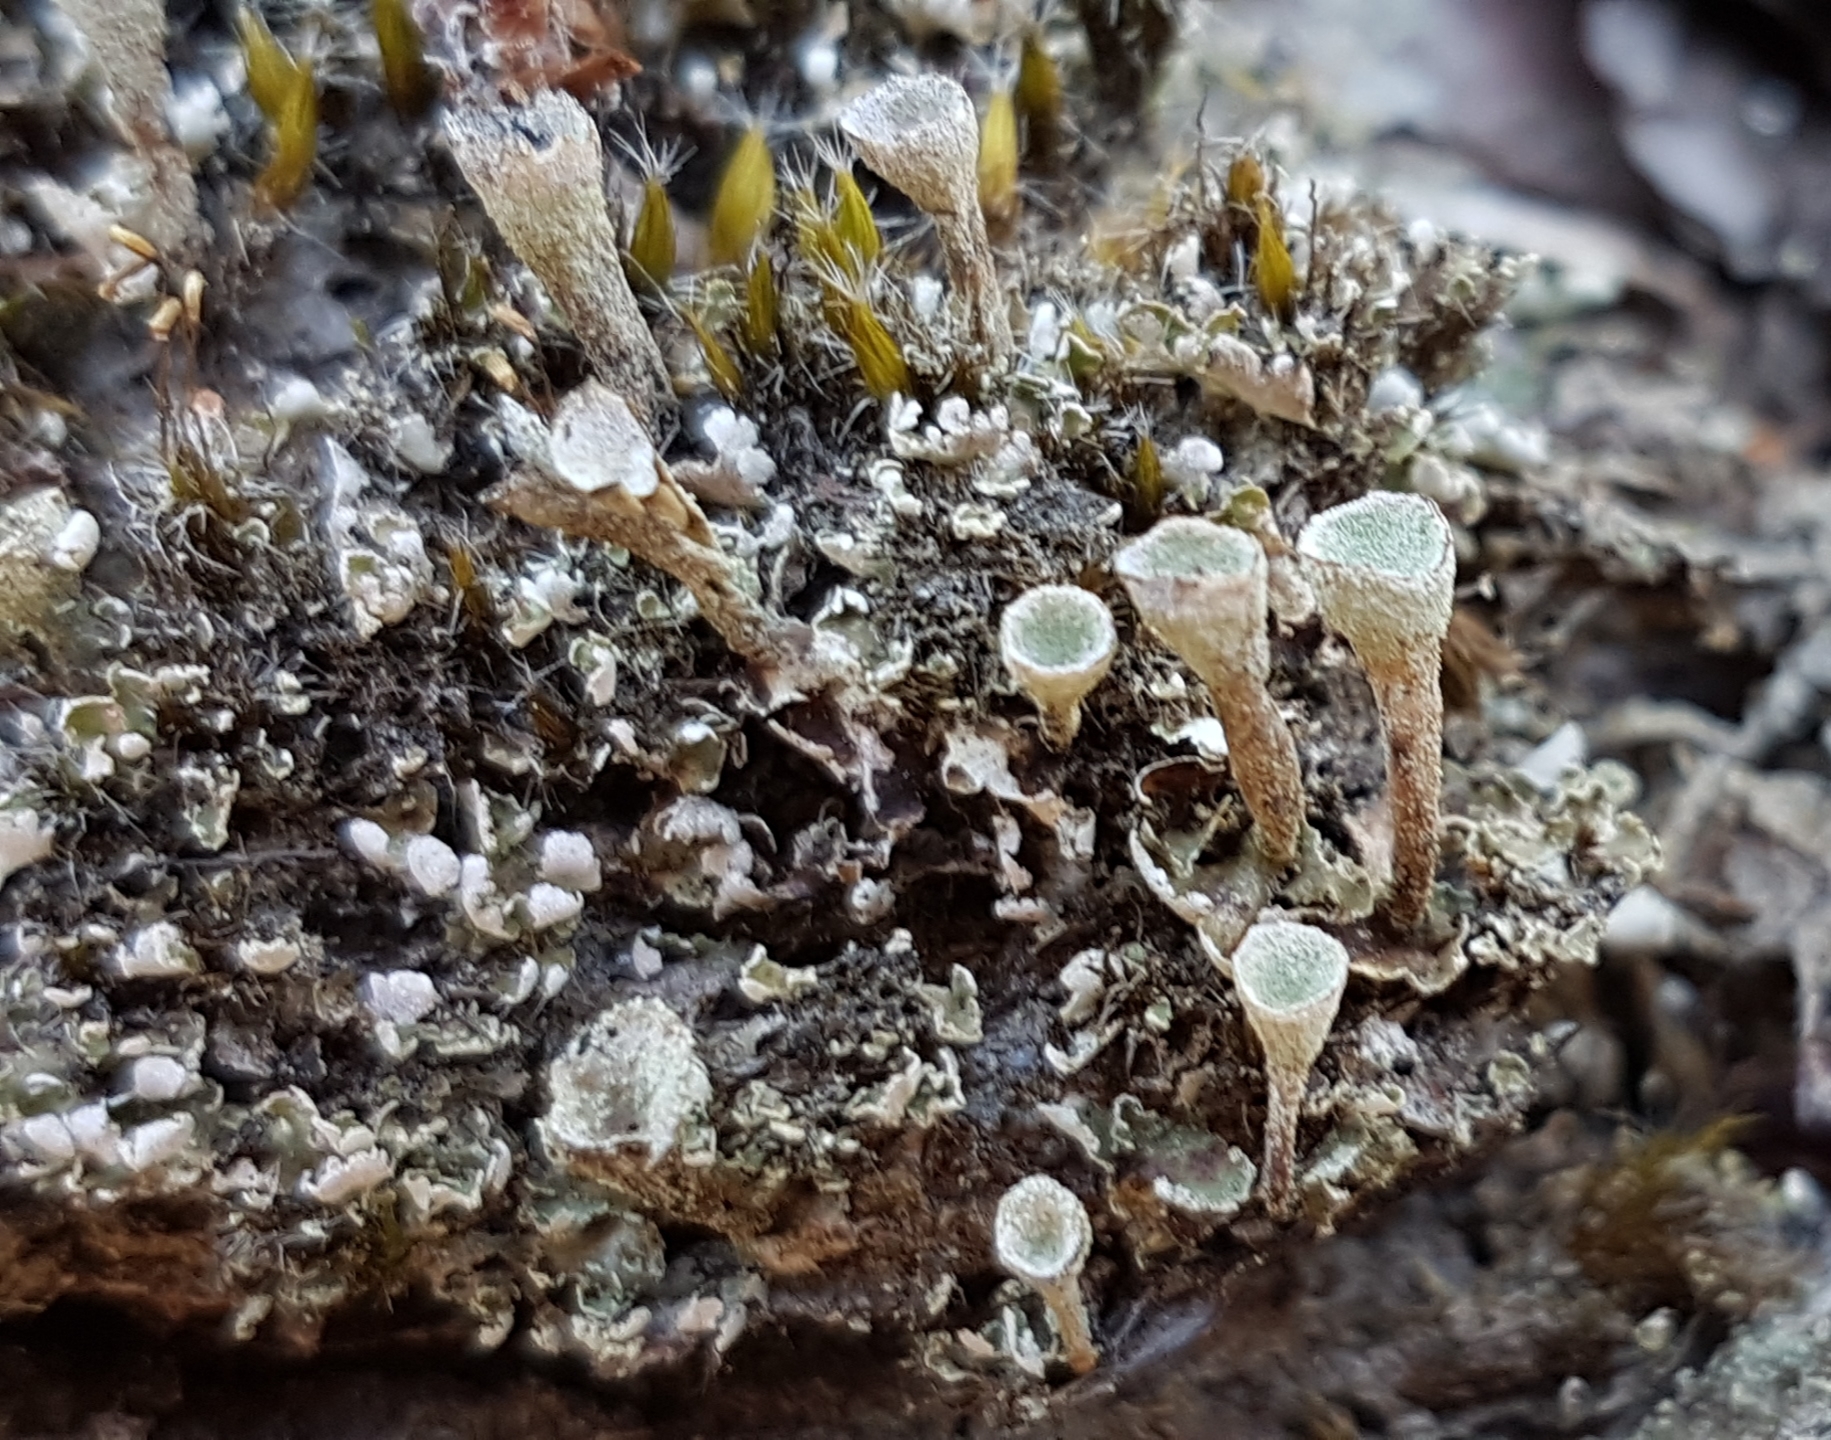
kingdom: Fungi
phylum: Ascomycota
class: Lecanoromycetes
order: Lecanorales
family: Cladoniaceae
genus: Cladonia
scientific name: Cladonia
